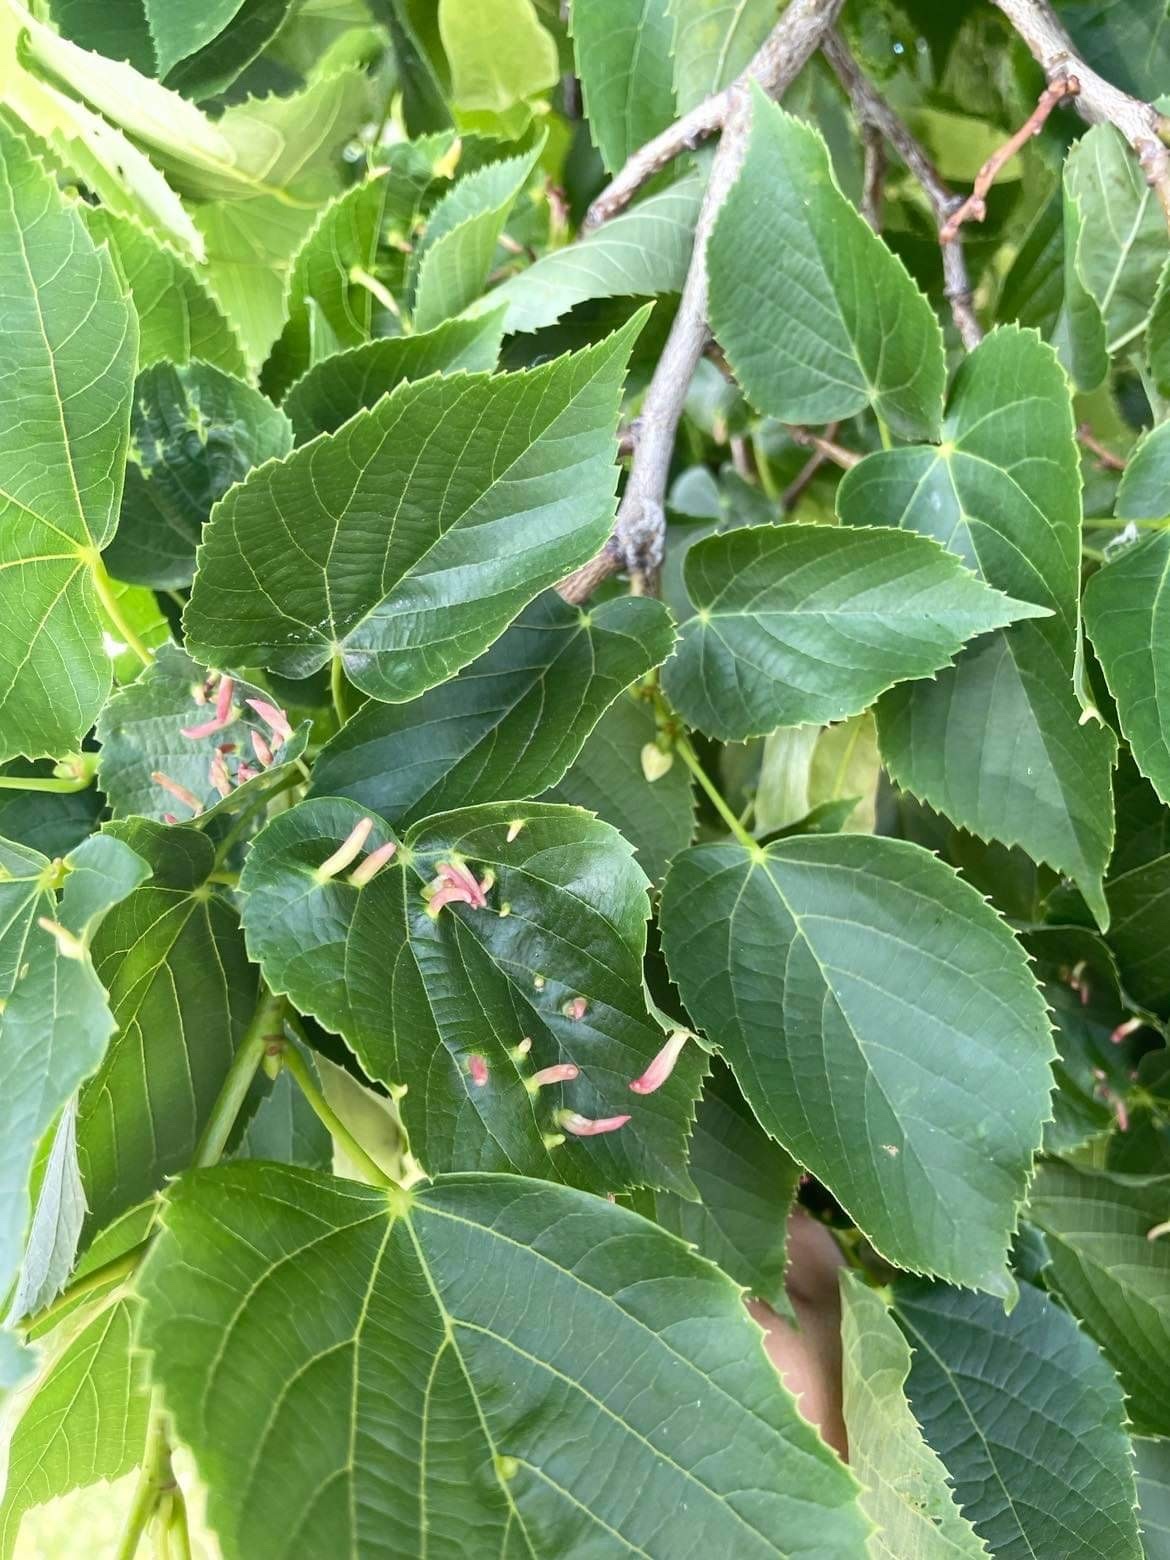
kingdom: Animalia
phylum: Arthropoda
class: Arachnida
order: Trombidiformes
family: Eriophyidae
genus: Eriophyes
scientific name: Eriophyes tiliae
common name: Red nail gall mite
